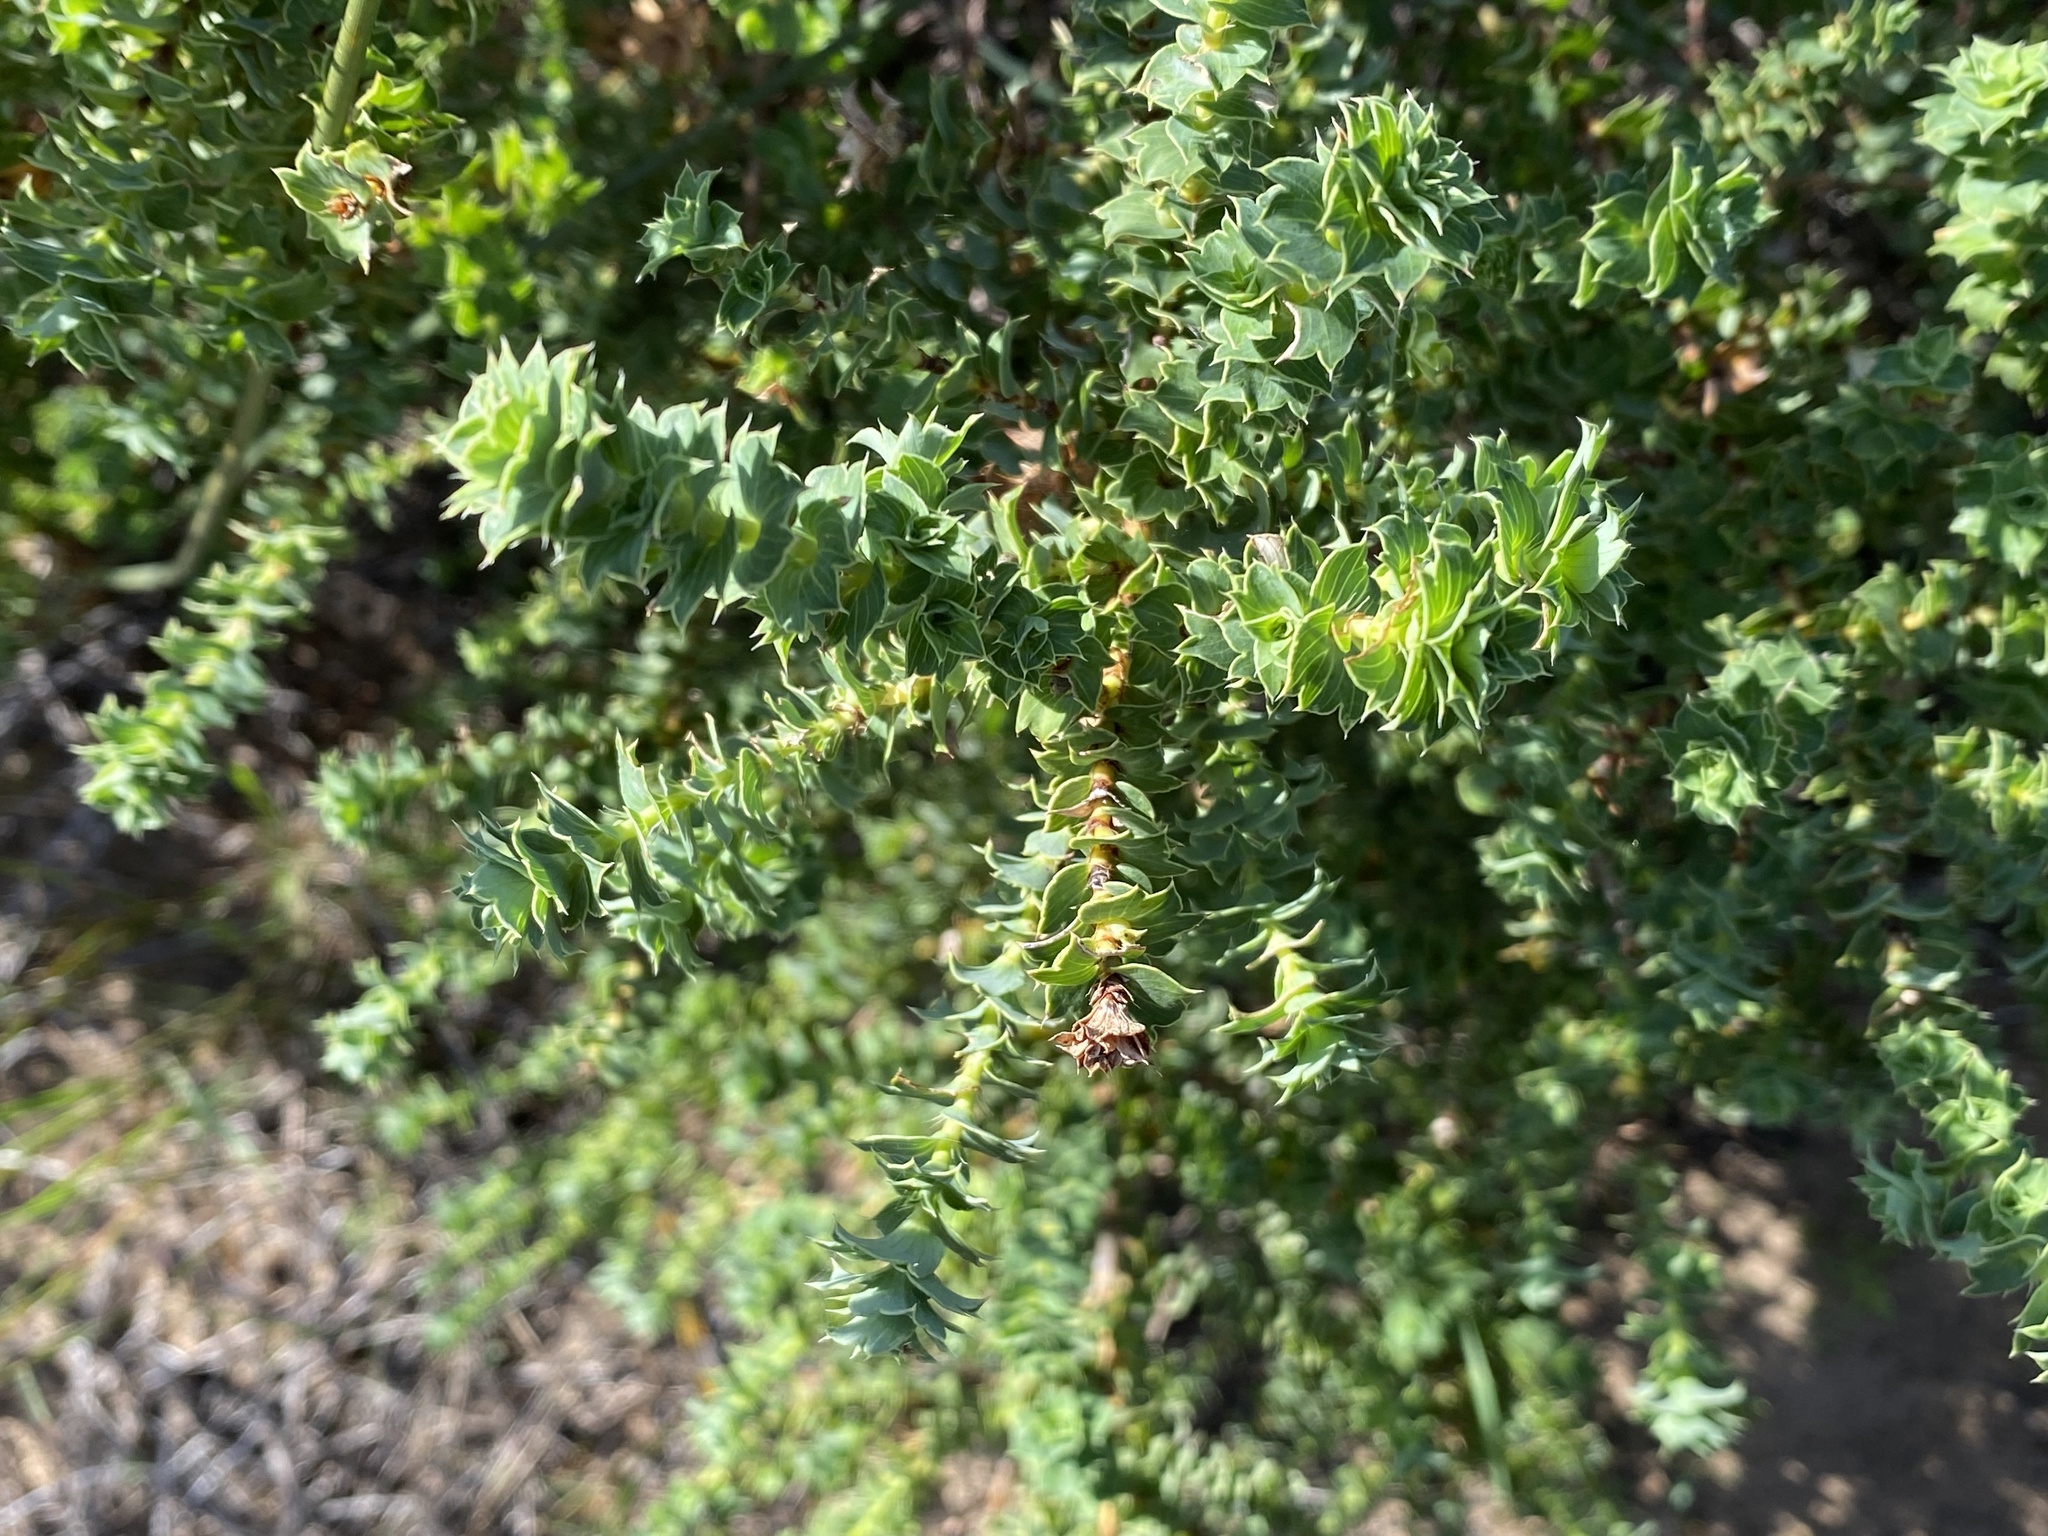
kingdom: Plantae
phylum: Tracheophyta
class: Magnoliopsida
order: Rosales
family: Rosaceae
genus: Cliffortia
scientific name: Cliffortia schlechteri
